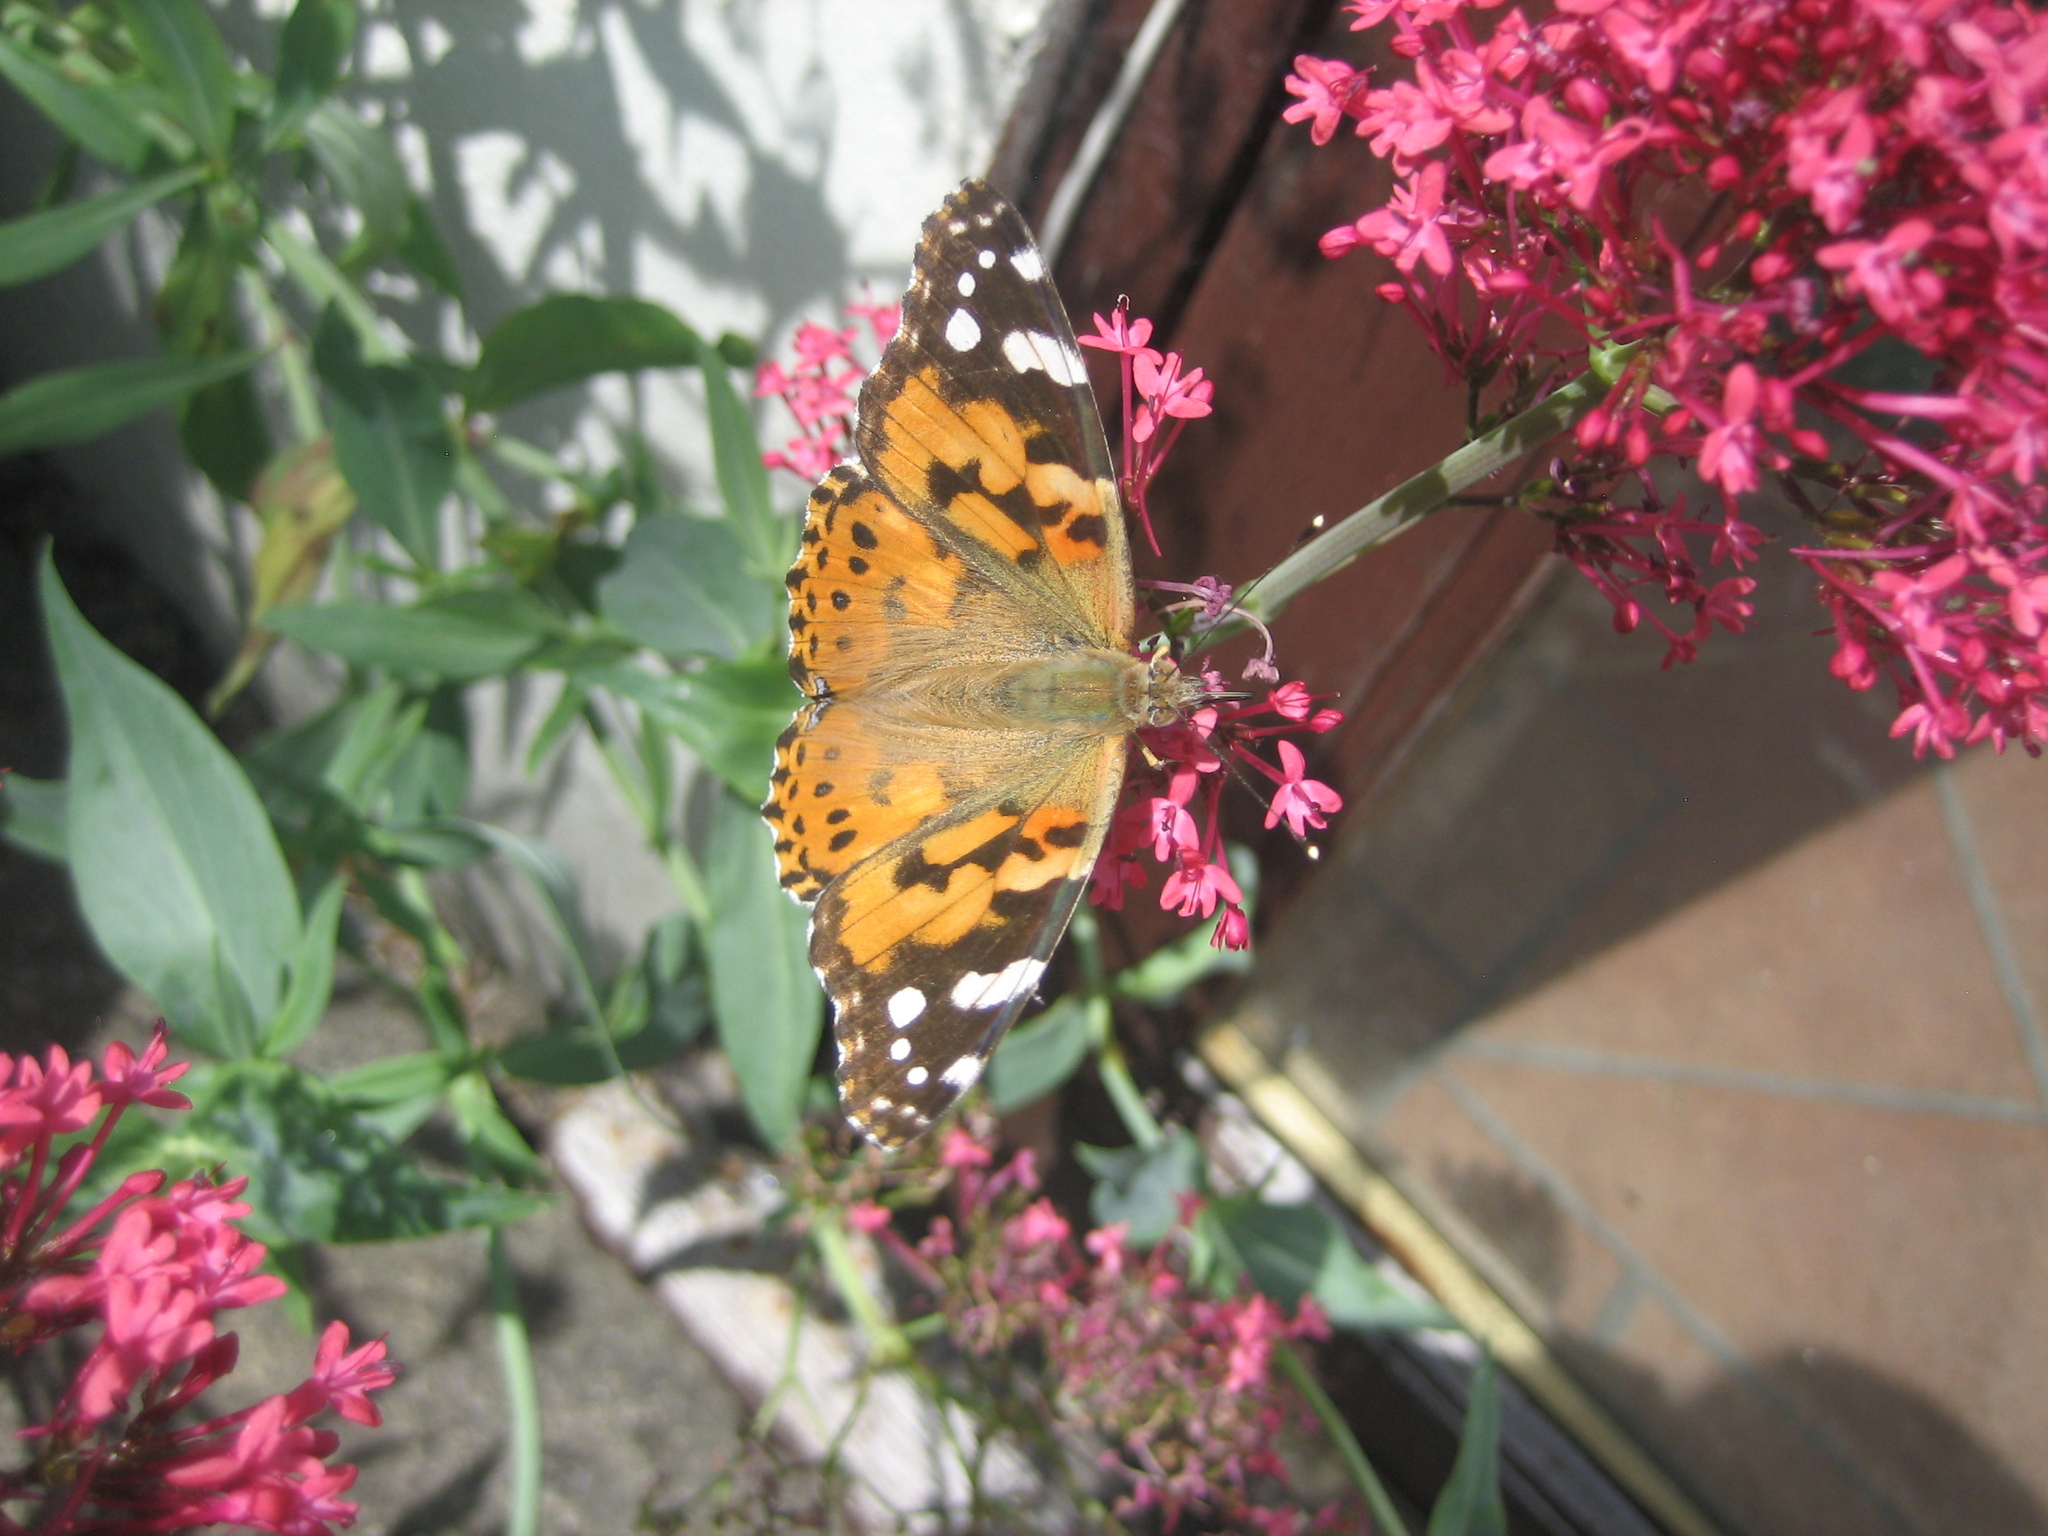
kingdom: Animalia
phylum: Arthropoda
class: Insecta
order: Lepidoptera
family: Nymphalidae
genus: Vanessa
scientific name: Vanessa cardui
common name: Painted lady
